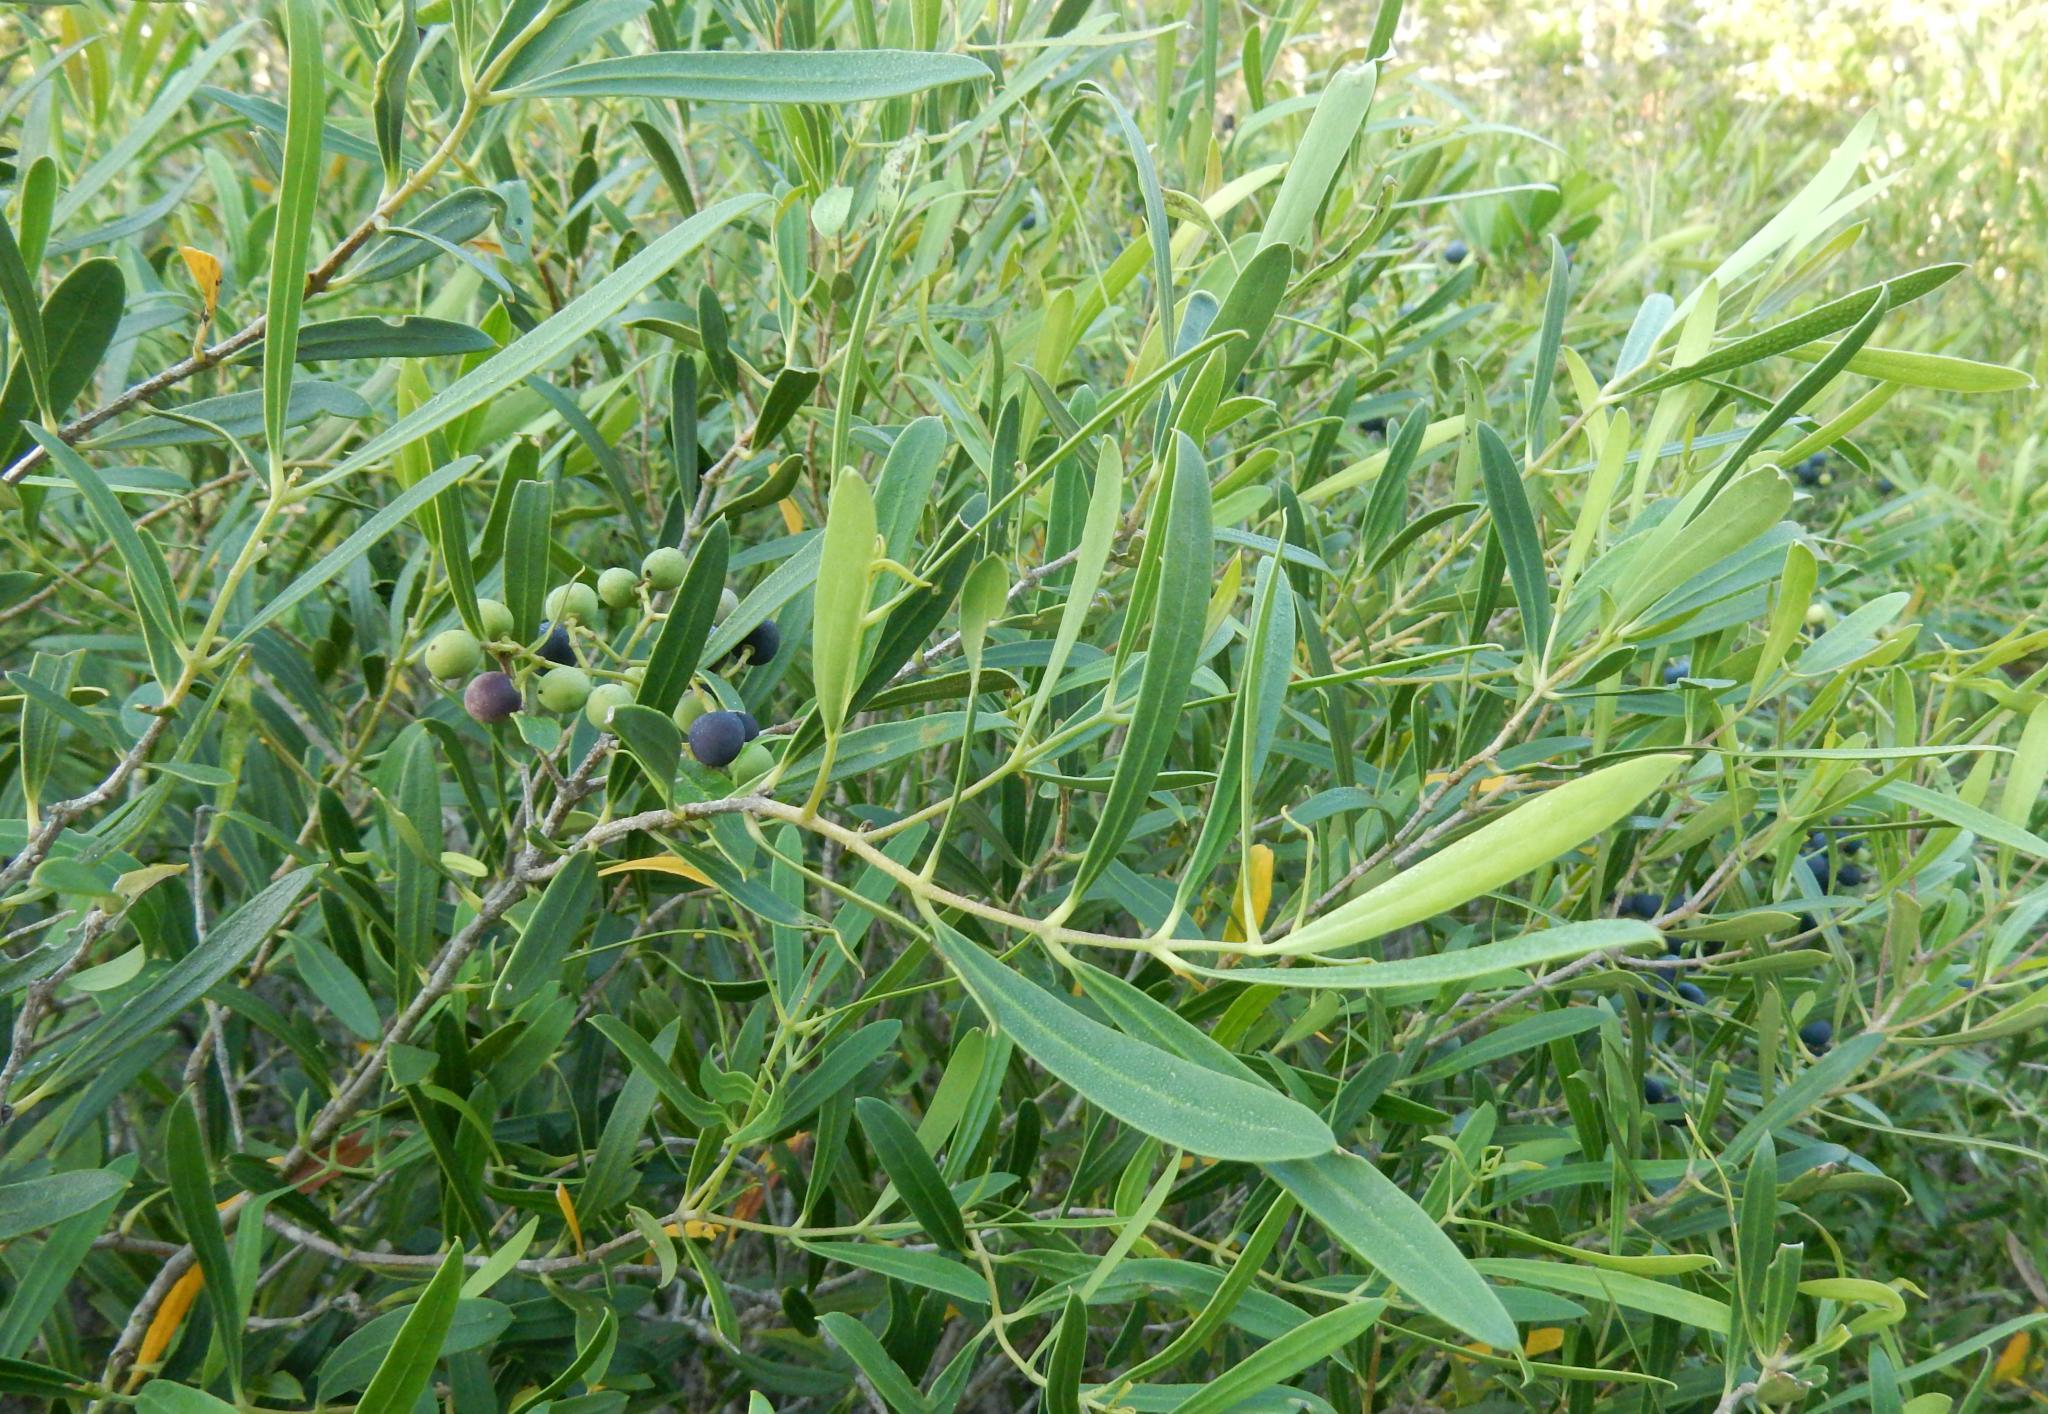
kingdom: Plantae
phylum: Tracheophyta
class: Magnoliopsida
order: Lamiales
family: Oleaceae
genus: Olea
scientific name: Olea exasperata
